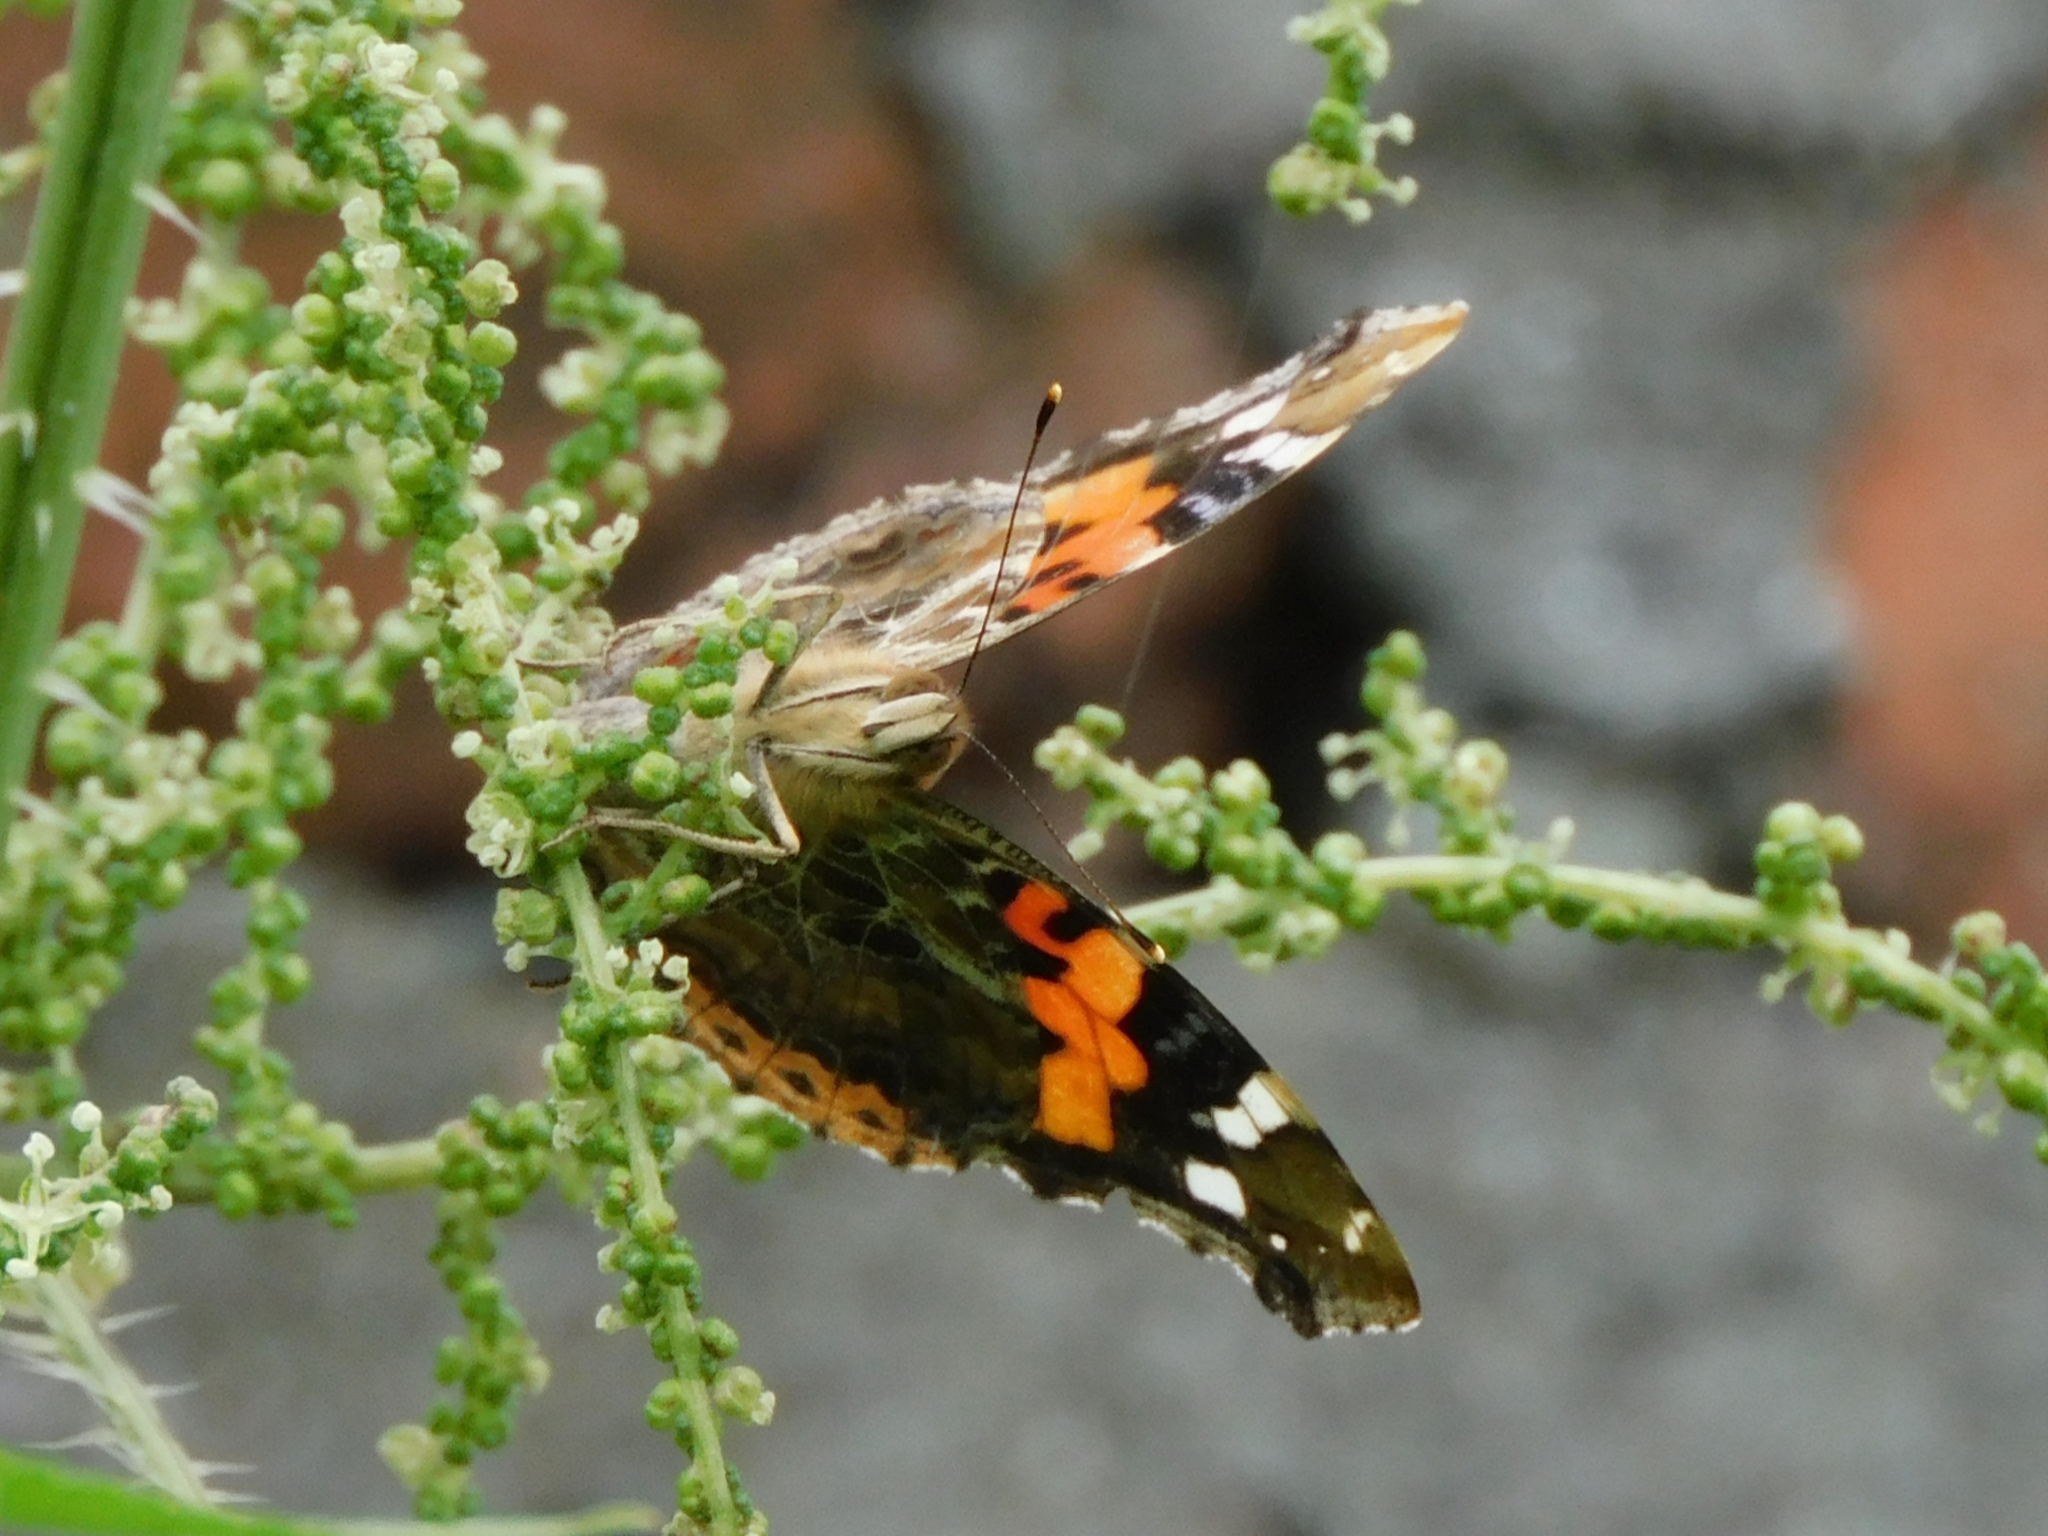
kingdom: Animalia
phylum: Arthropoda
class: Insecta
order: Lepidoptera
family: Nymphalidae
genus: Vanessa
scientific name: Vanessa indica
